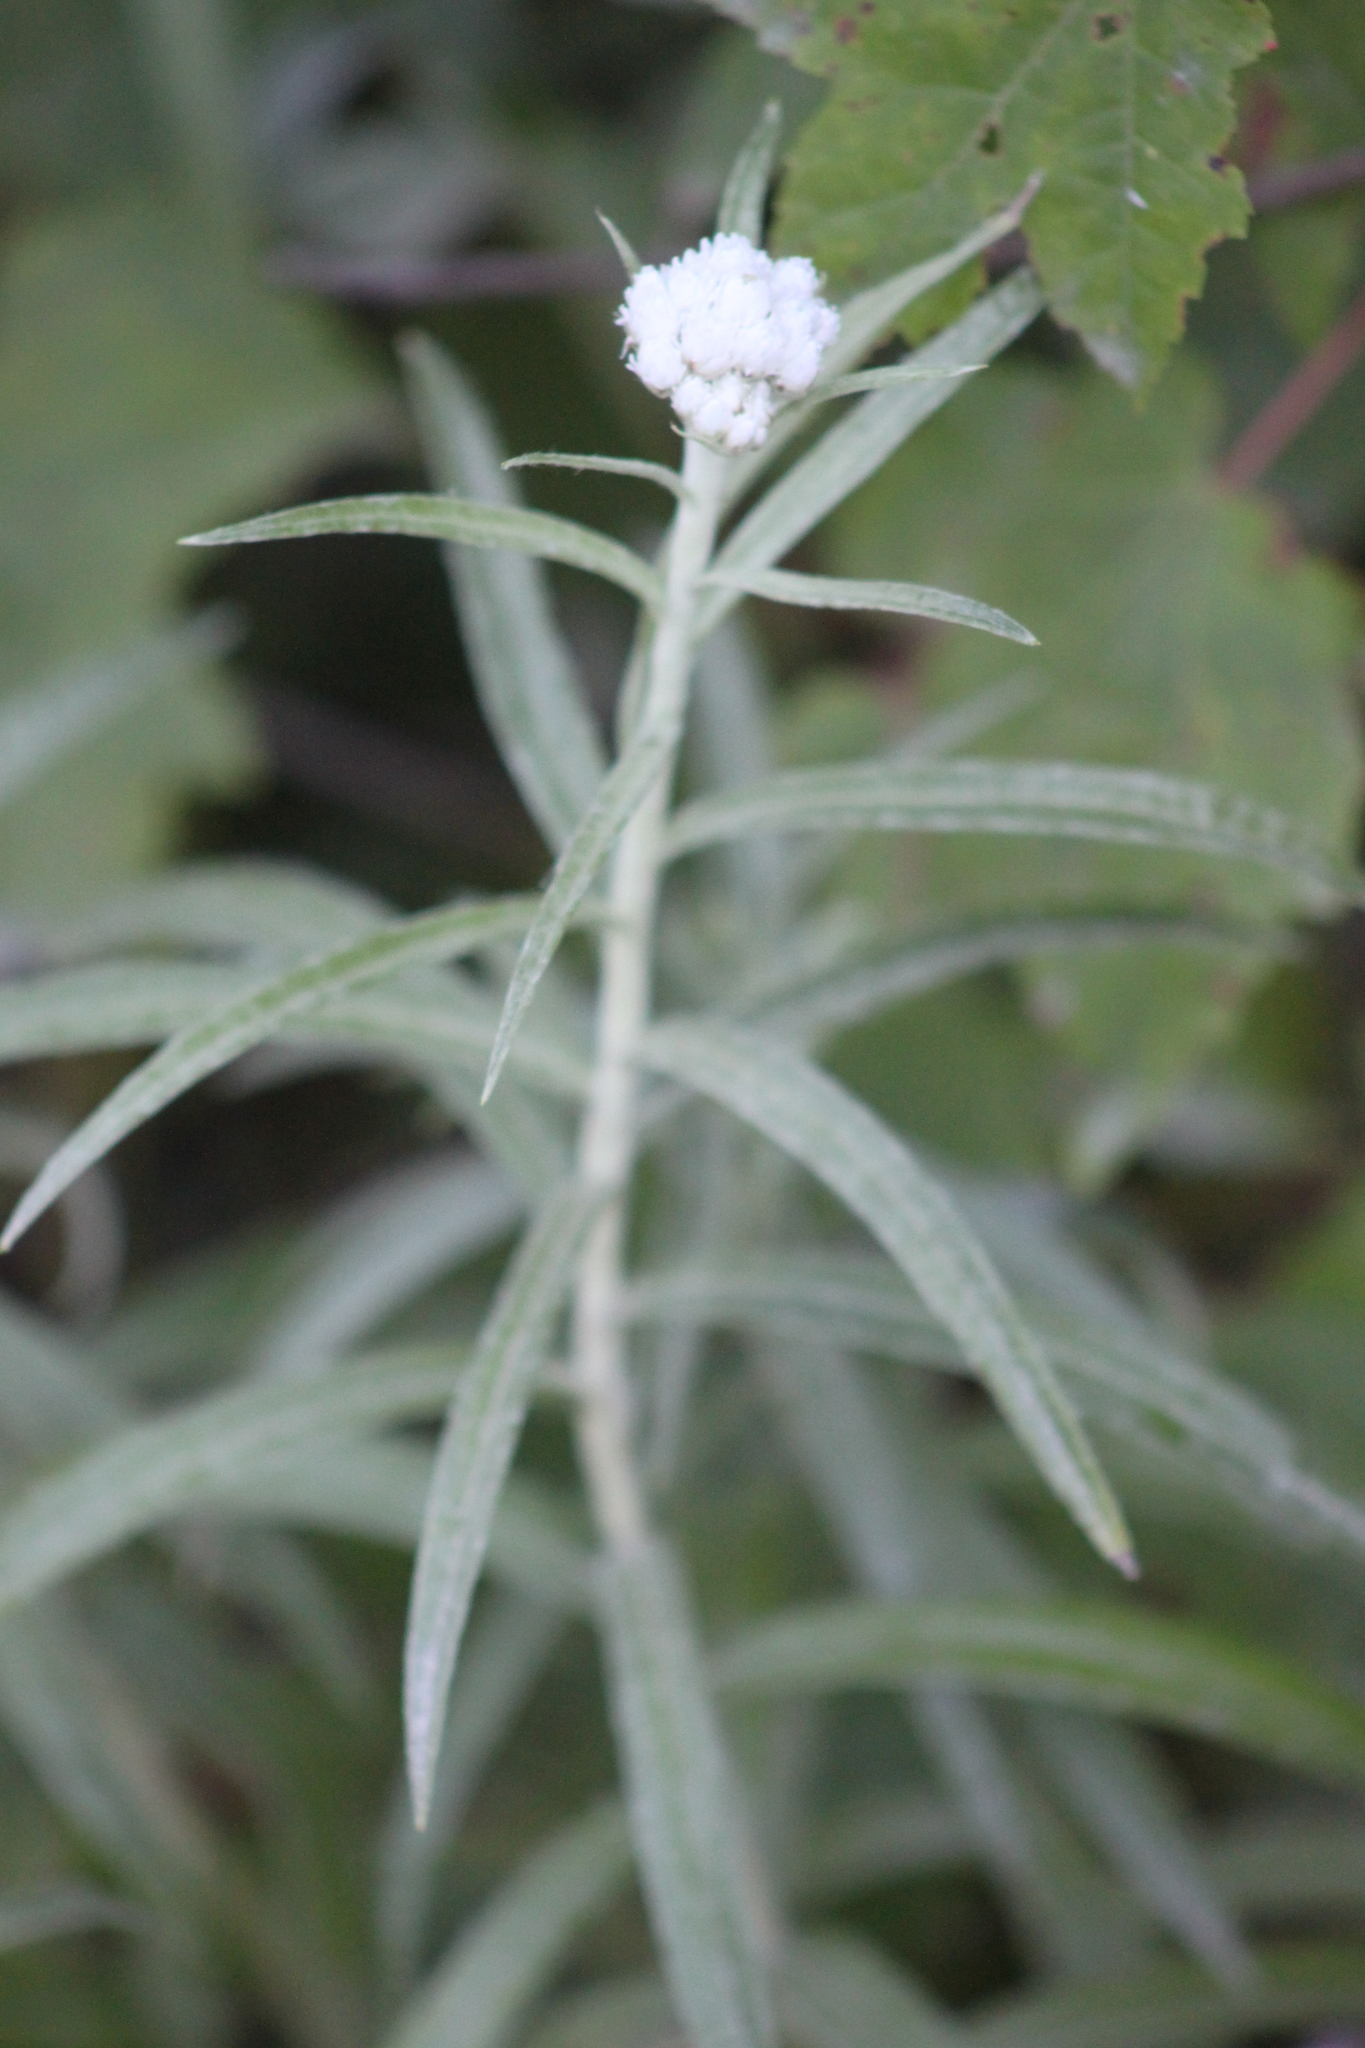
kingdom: Plantae
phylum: Tracheophyta
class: Magnoliopsida
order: Asterales
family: Asteraceae
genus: Anaphalis
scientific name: Anaphalis margaritacea
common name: Pearly everlasting
